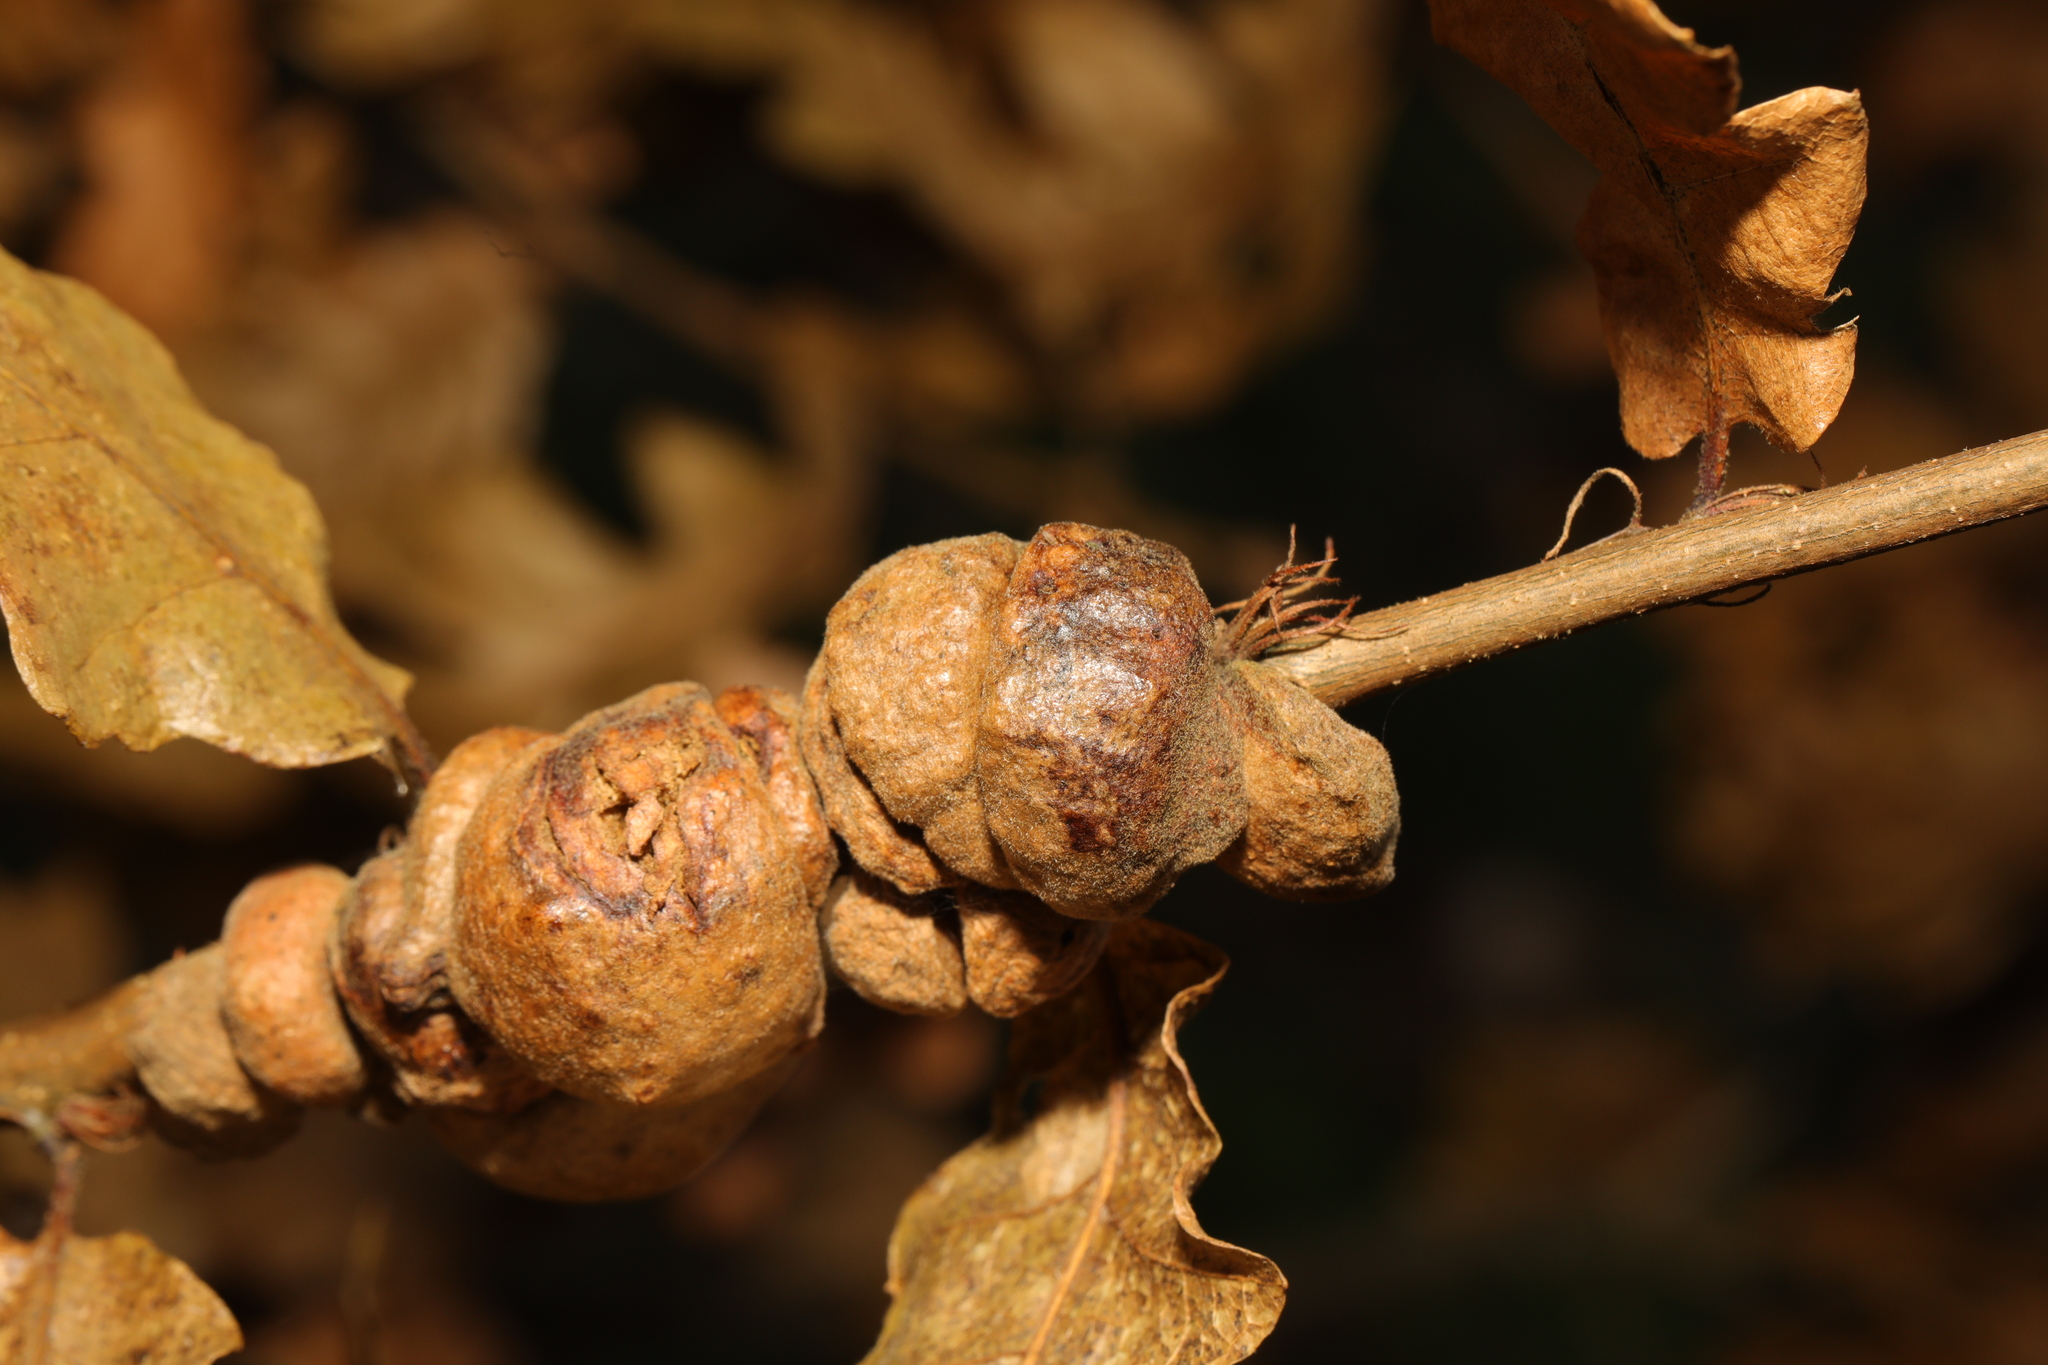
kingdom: Animalia
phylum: Arthropoda
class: Insecta
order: Hymenoptera
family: Cynipidae
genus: Aphelonyx
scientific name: Aphelonyx cerricola
